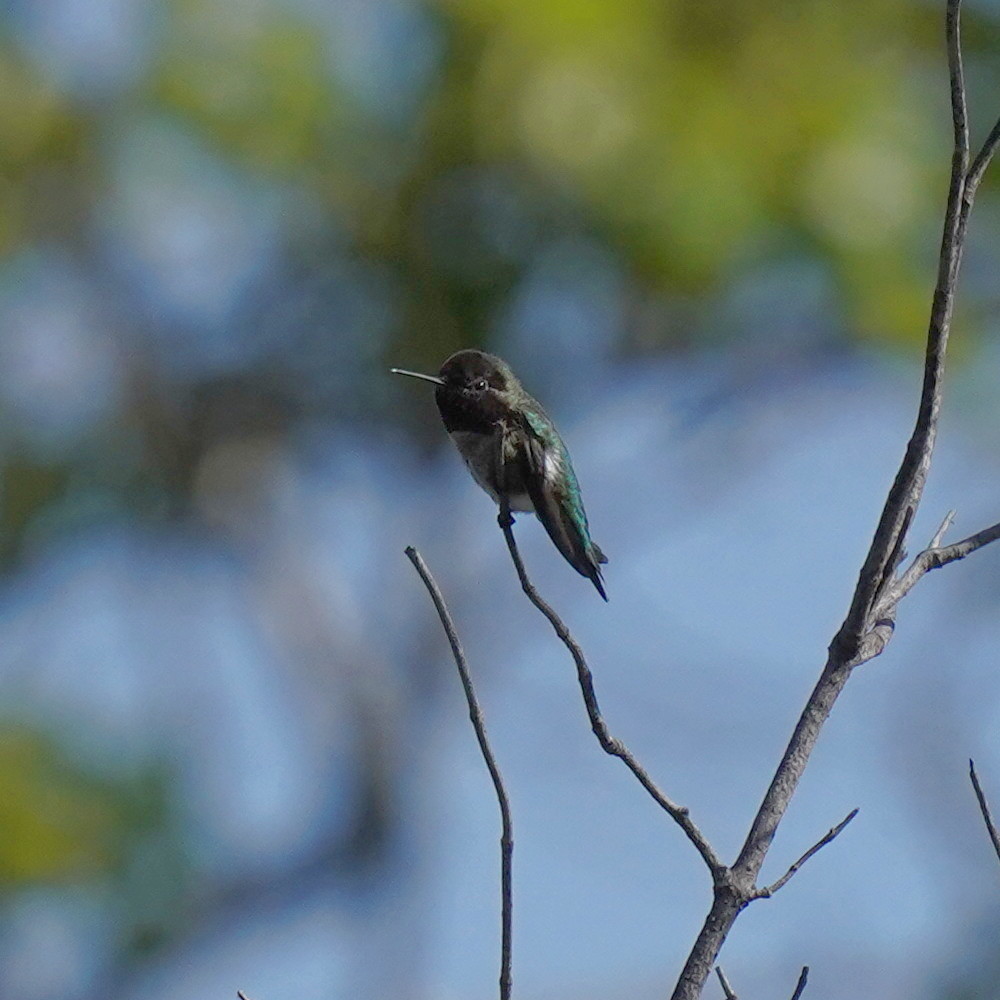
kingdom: Animalia
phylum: Chordata
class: Aves
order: Apodiformes
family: Trochilidae
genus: Calypte
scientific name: Calypte anna
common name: Anna's hummingbird
